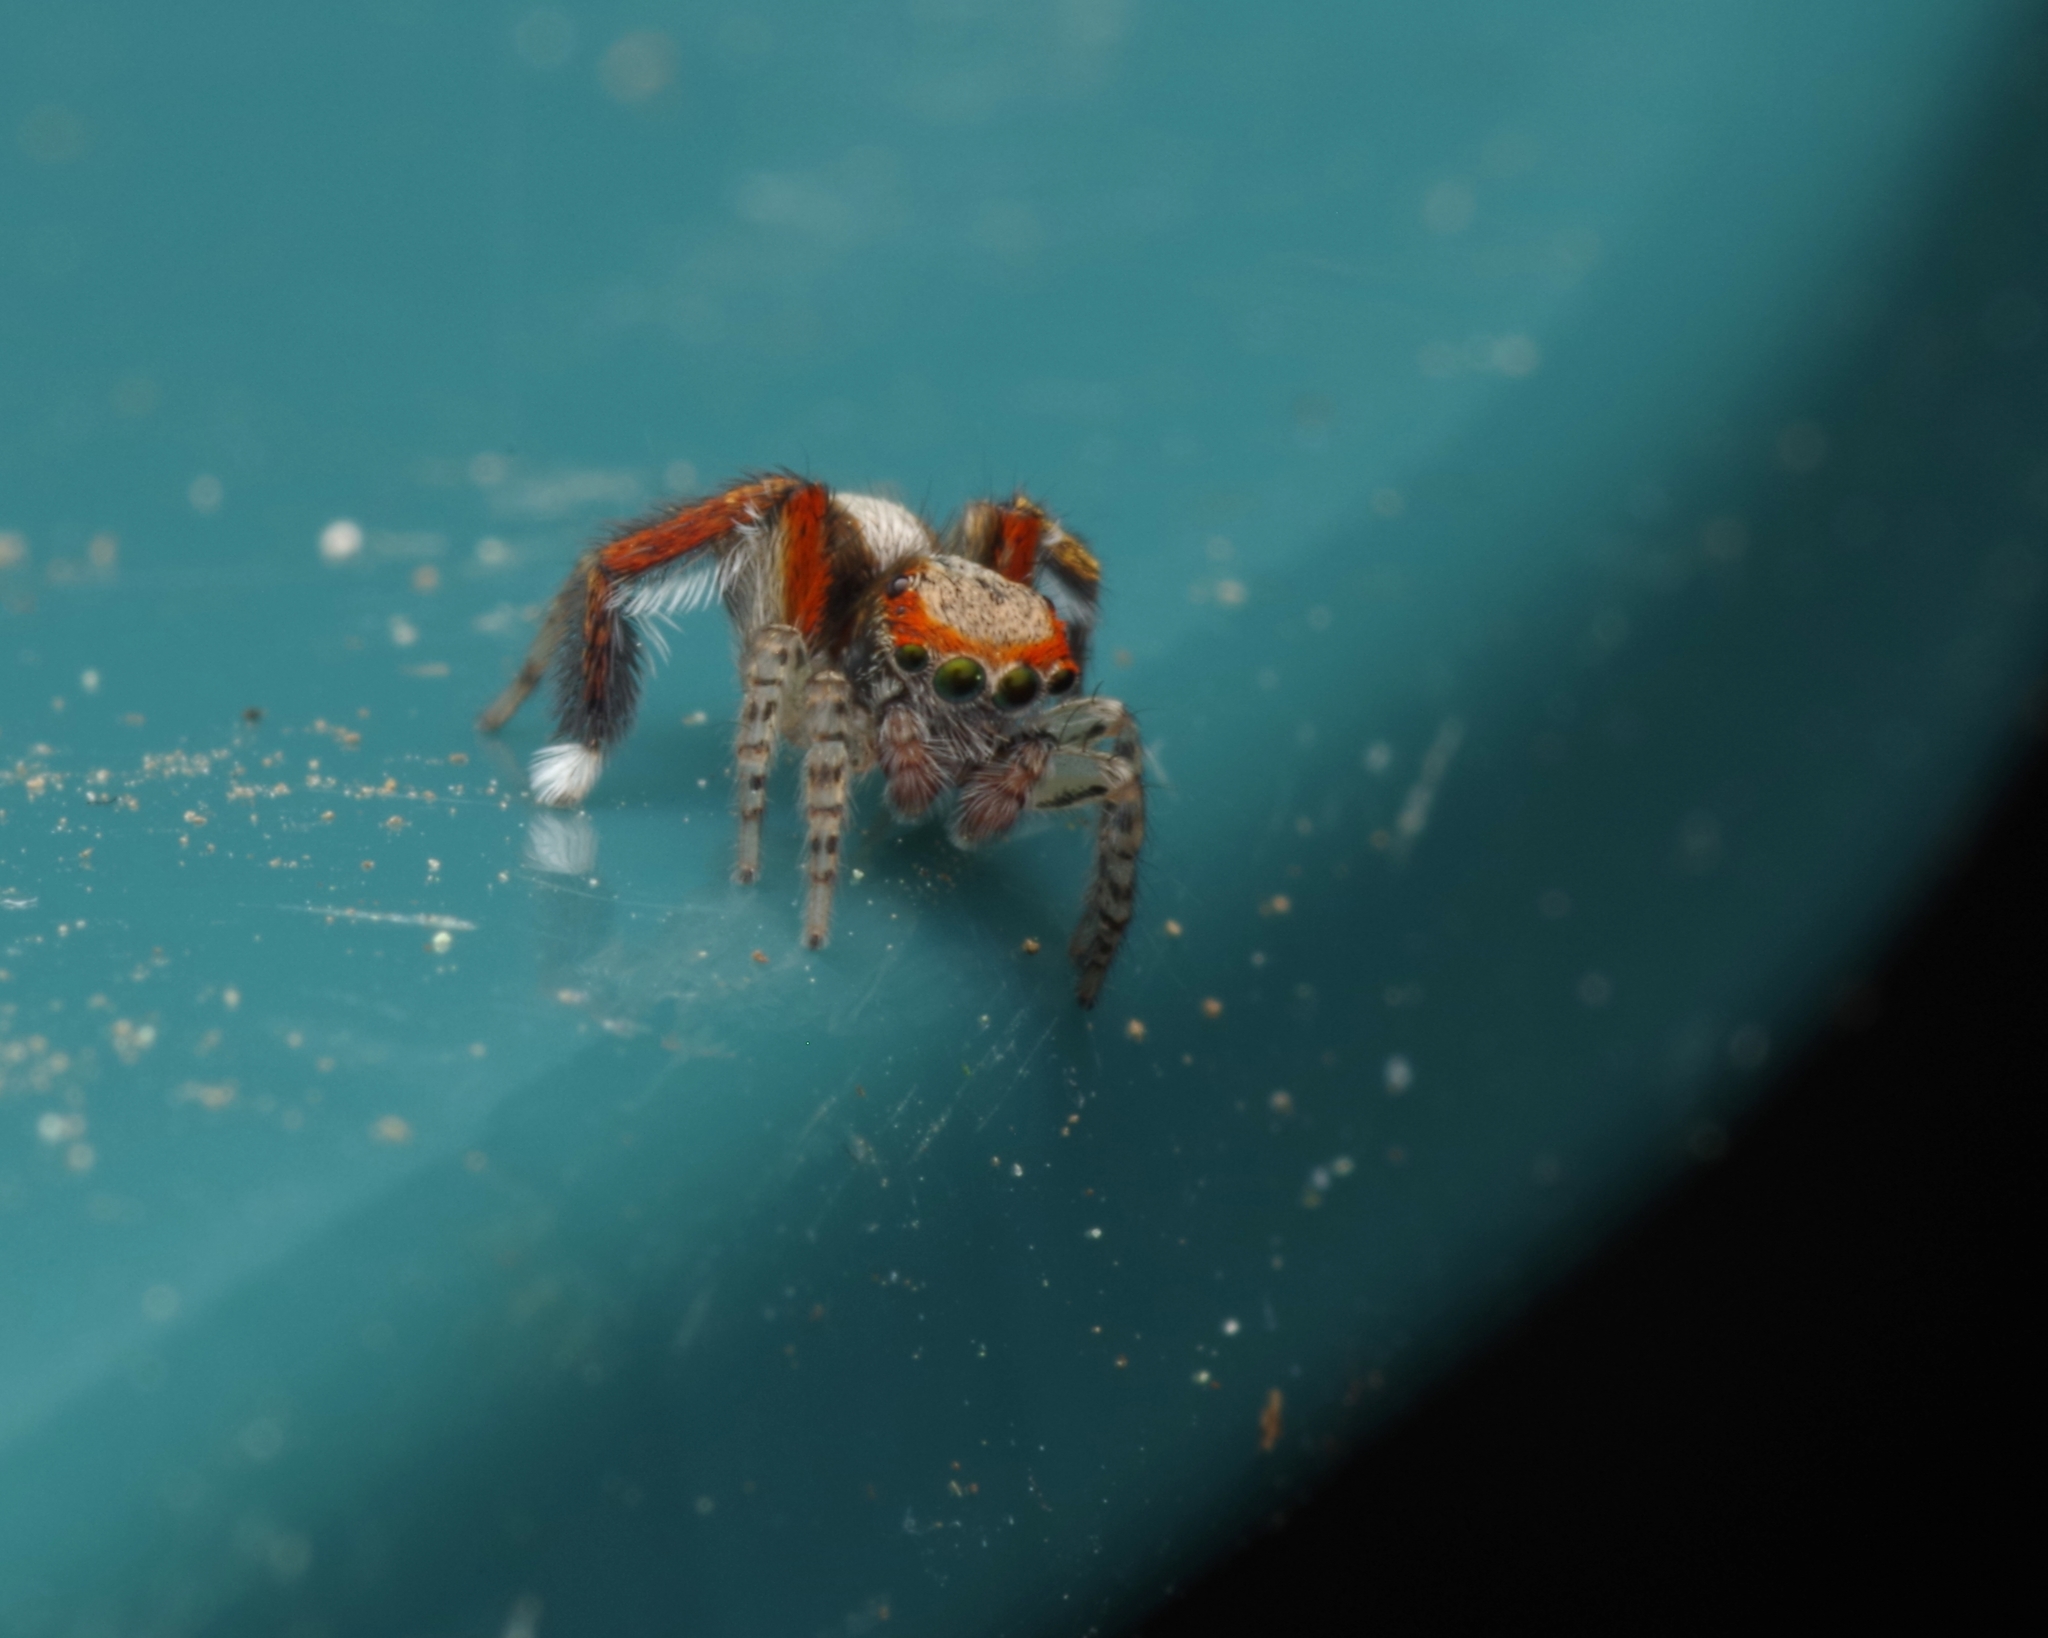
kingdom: Animalia
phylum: Arthropoda
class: Arachnida
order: Araneae
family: Salticidae
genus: Saitis
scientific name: Saitis barbipes
